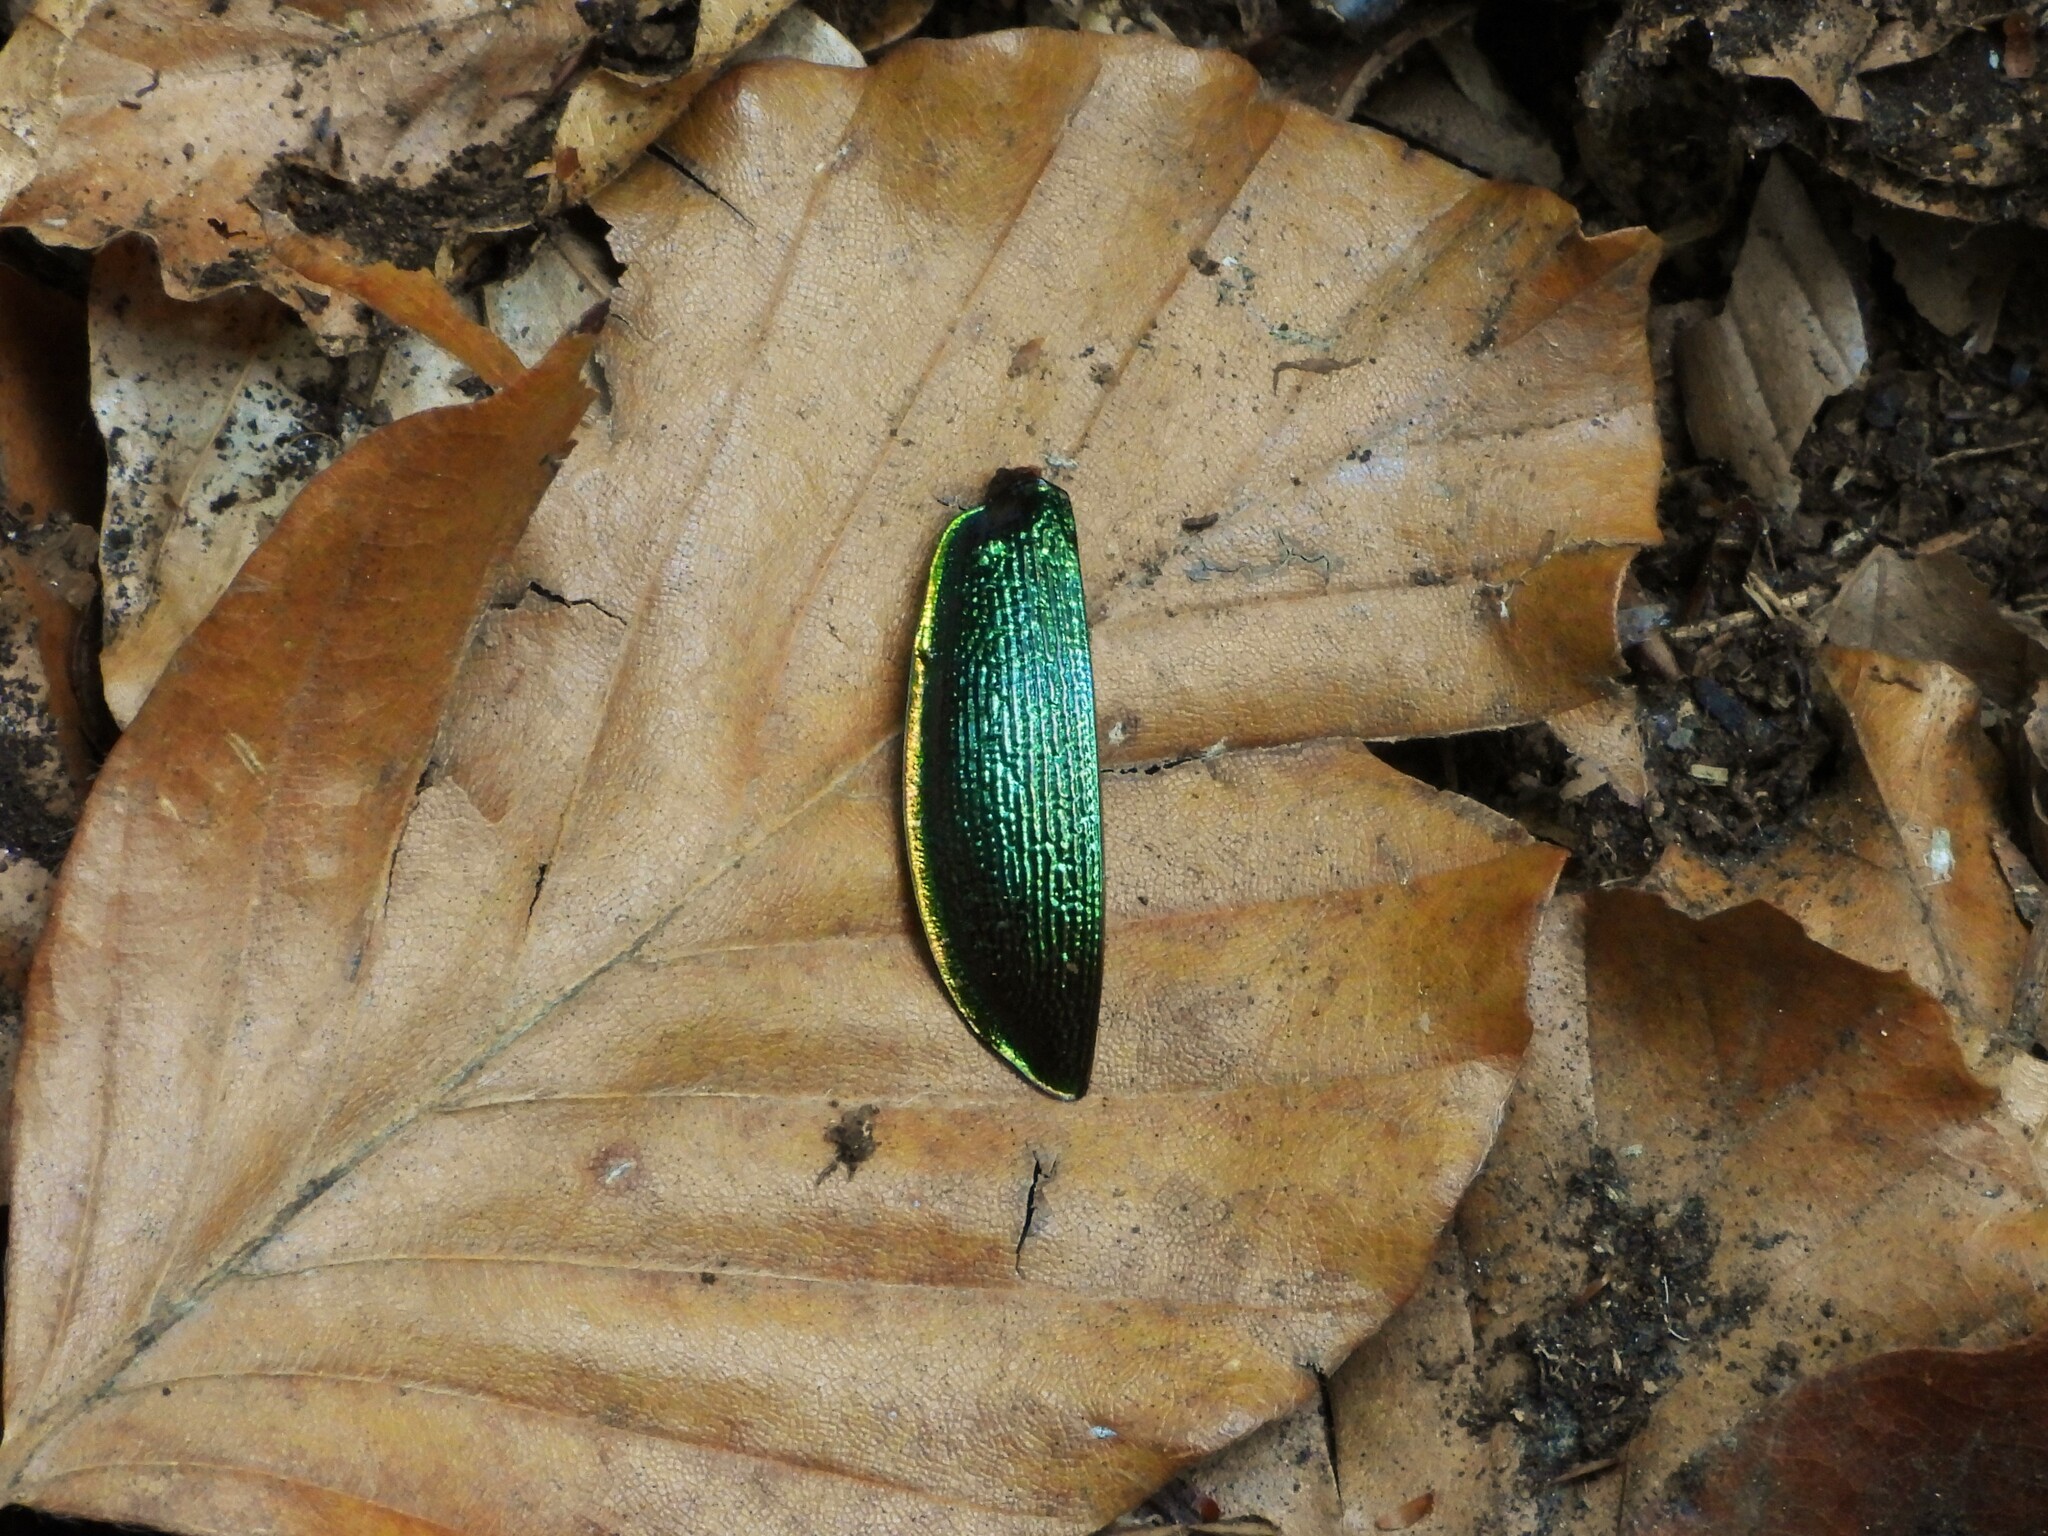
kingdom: Animalia
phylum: Arthropoda
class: Insecta
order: Coleoptera
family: Carabidae
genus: Carabus
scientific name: Carabus olympiae
